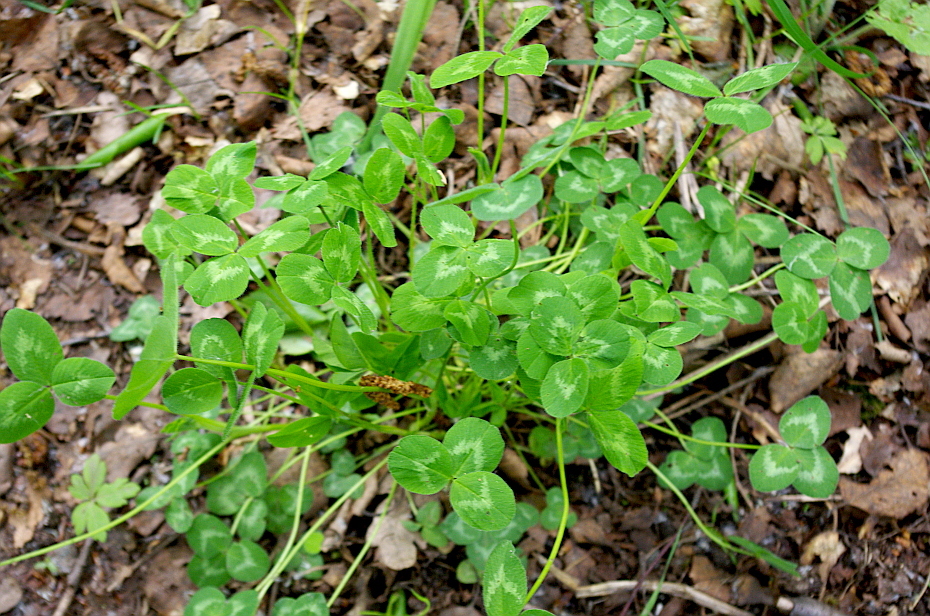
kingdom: Plantae
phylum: Tracheophyta
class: Magnoliopsida
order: Fabales
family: Fabaceae
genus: Trifolium
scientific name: Trifolium pratense
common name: Red clover
